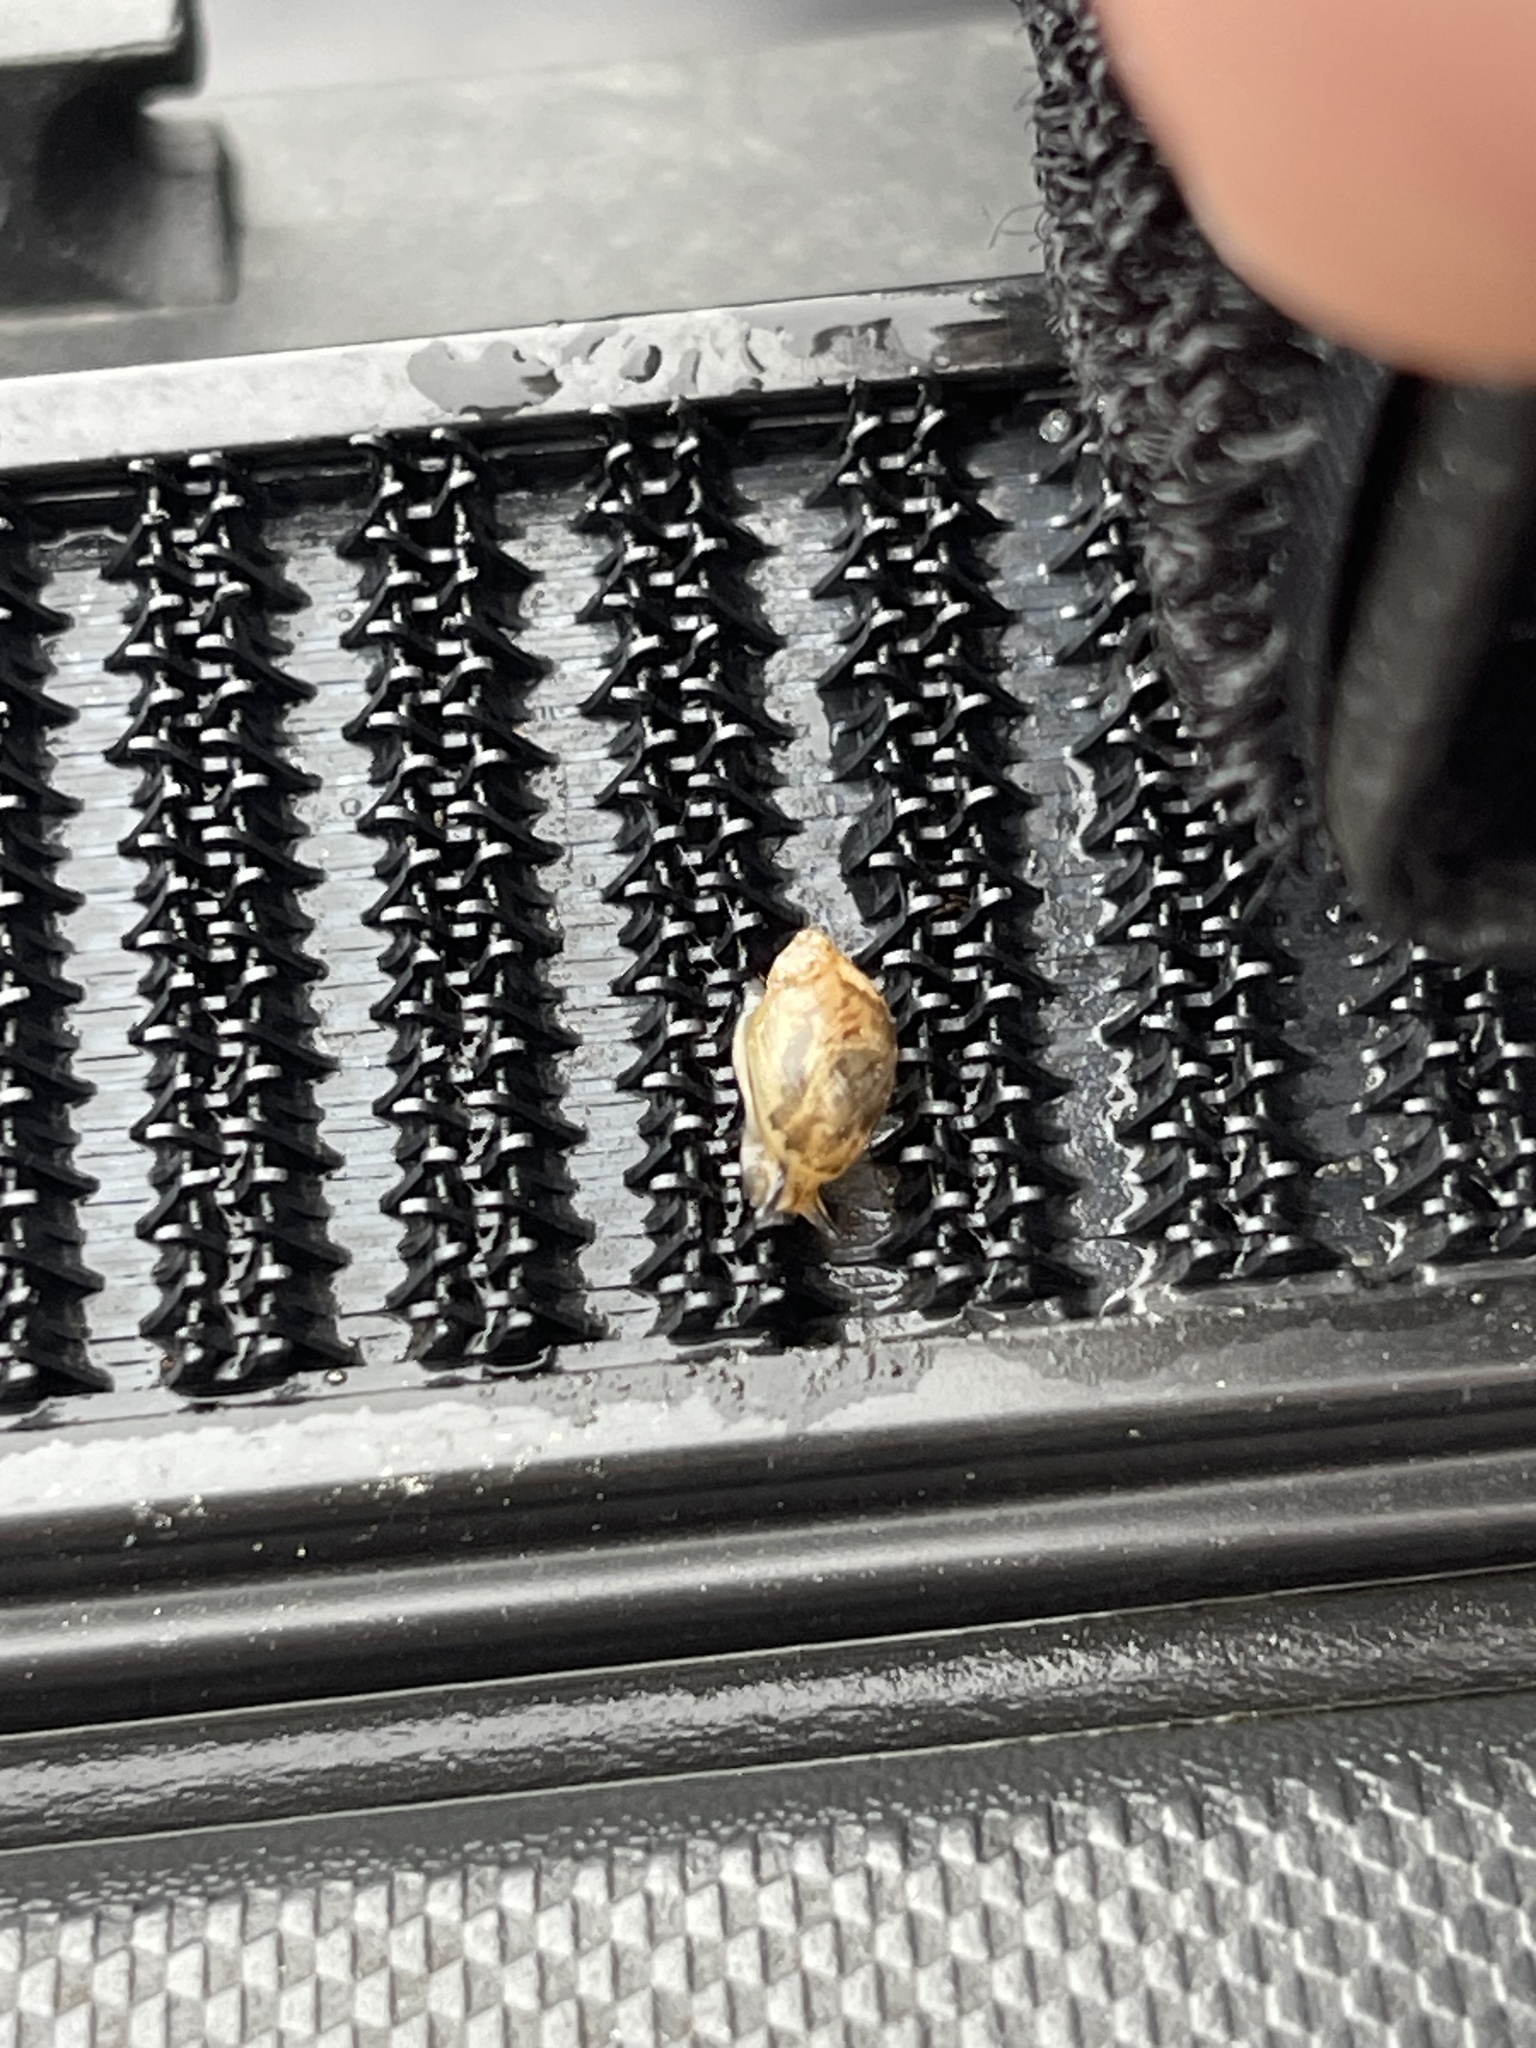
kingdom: Animalia
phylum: Mollusca
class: Gastropoda
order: Stylommatophora
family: Succineidae
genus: Novisuccinea
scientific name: Novisuccinea ovalis
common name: Oval ambersnail
